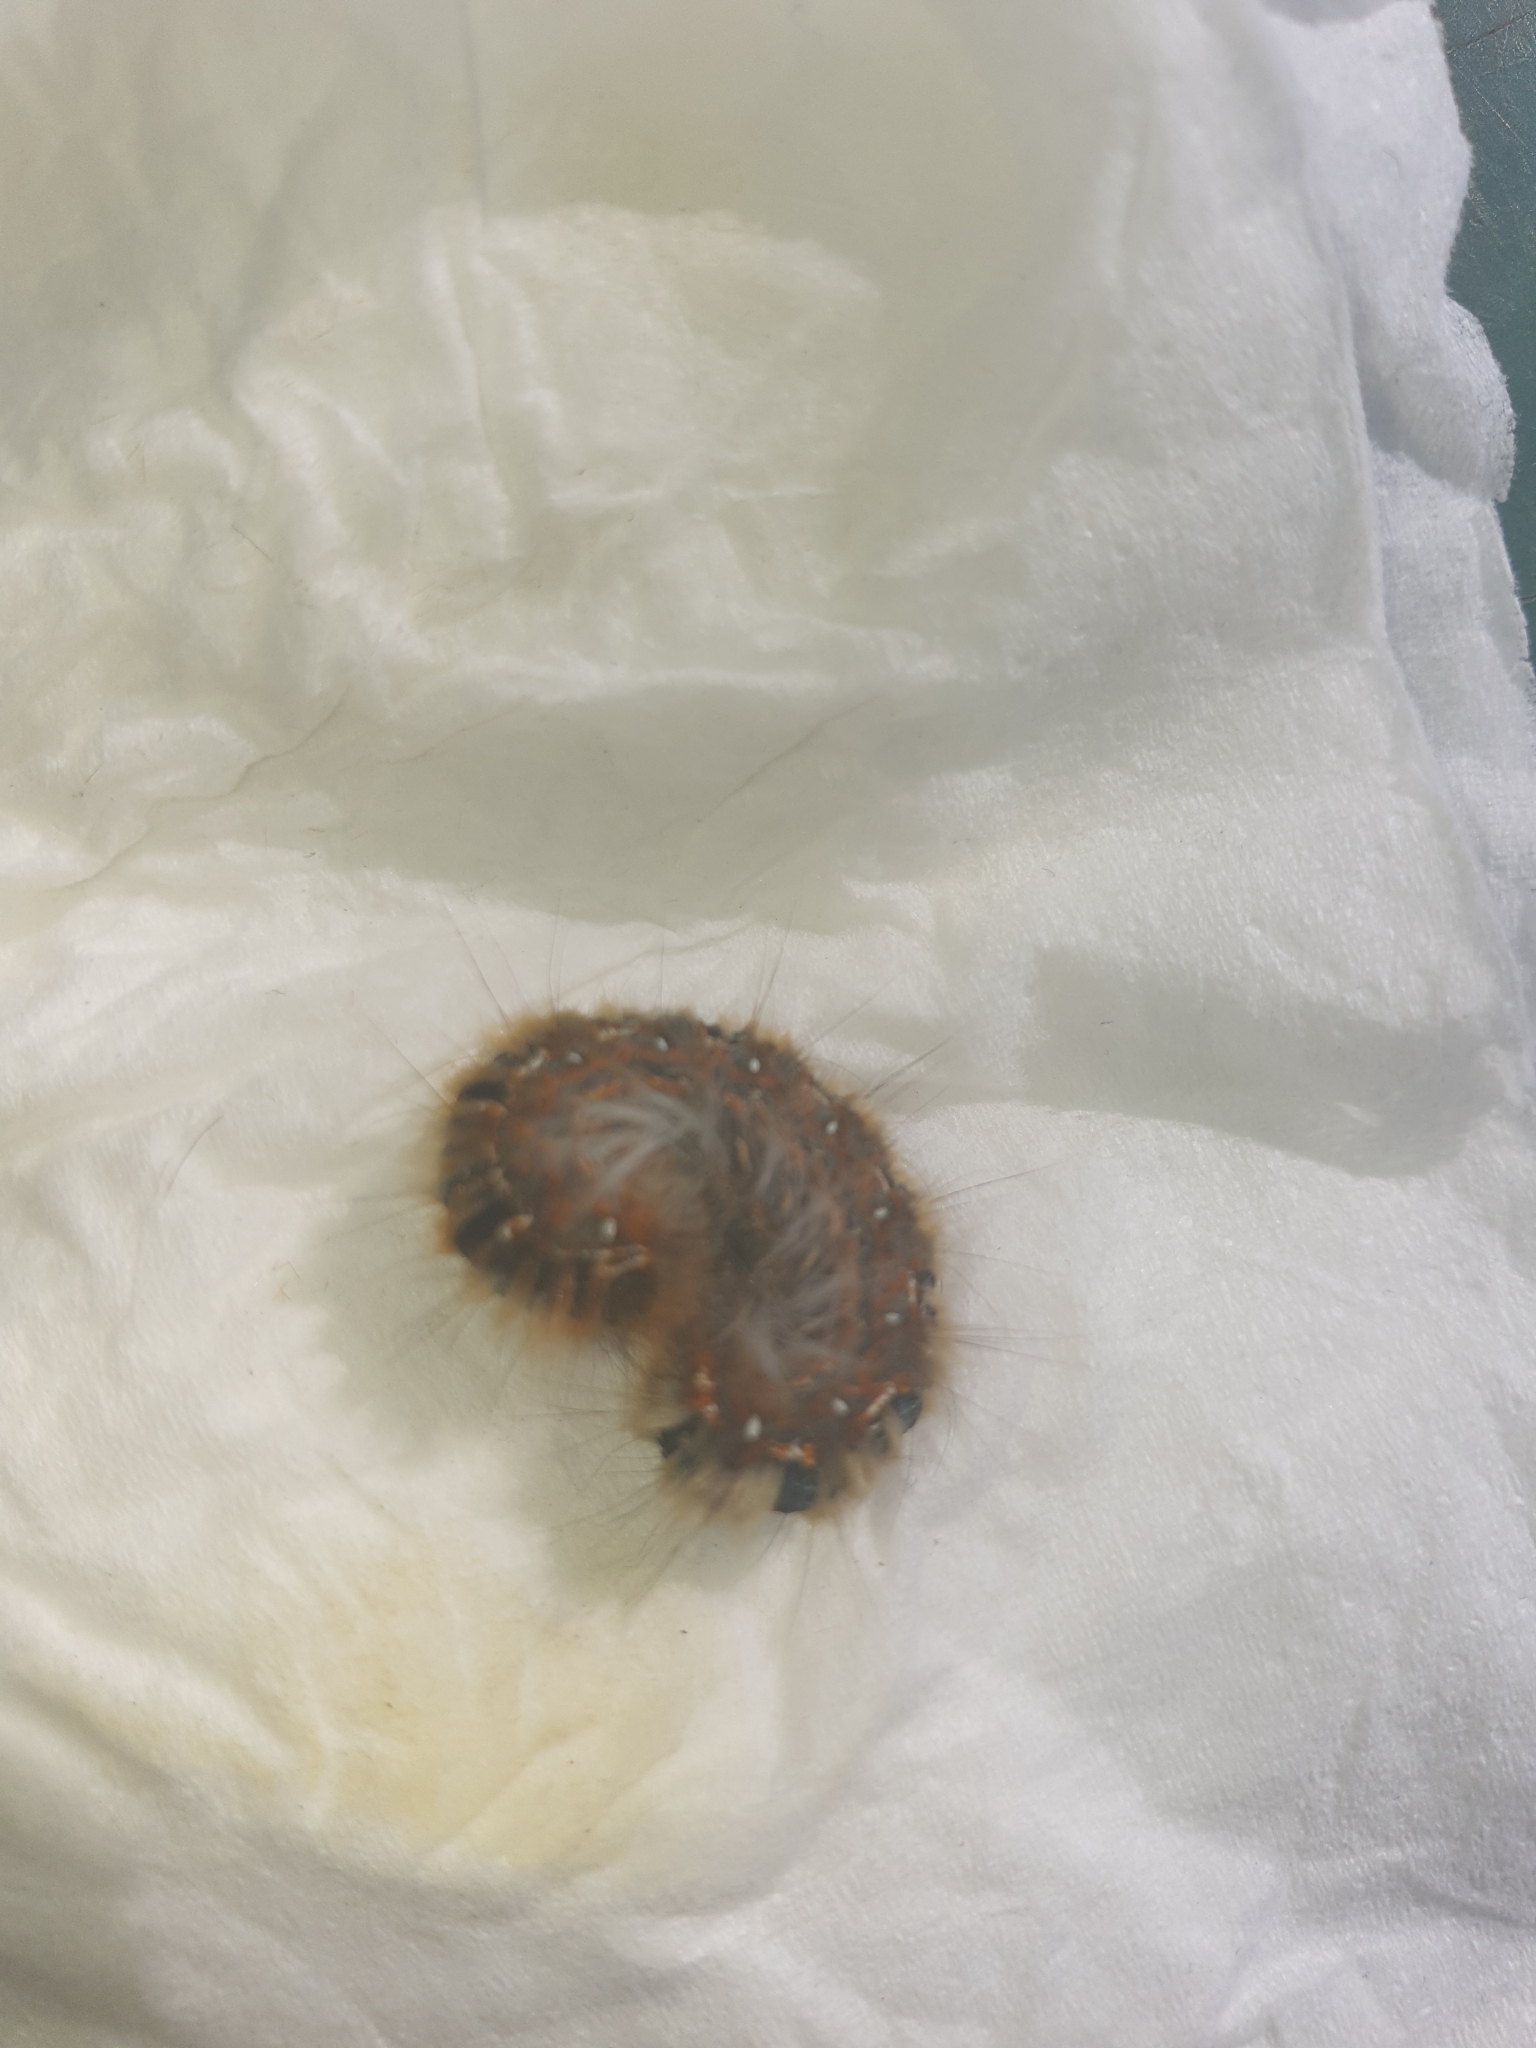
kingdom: Animalia
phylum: Arthropoda
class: Insecta
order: Lepidoptera
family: Lasiocampidae
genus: Lasiocampa
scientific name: Lasiocampa quercus
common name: Oak eggar
